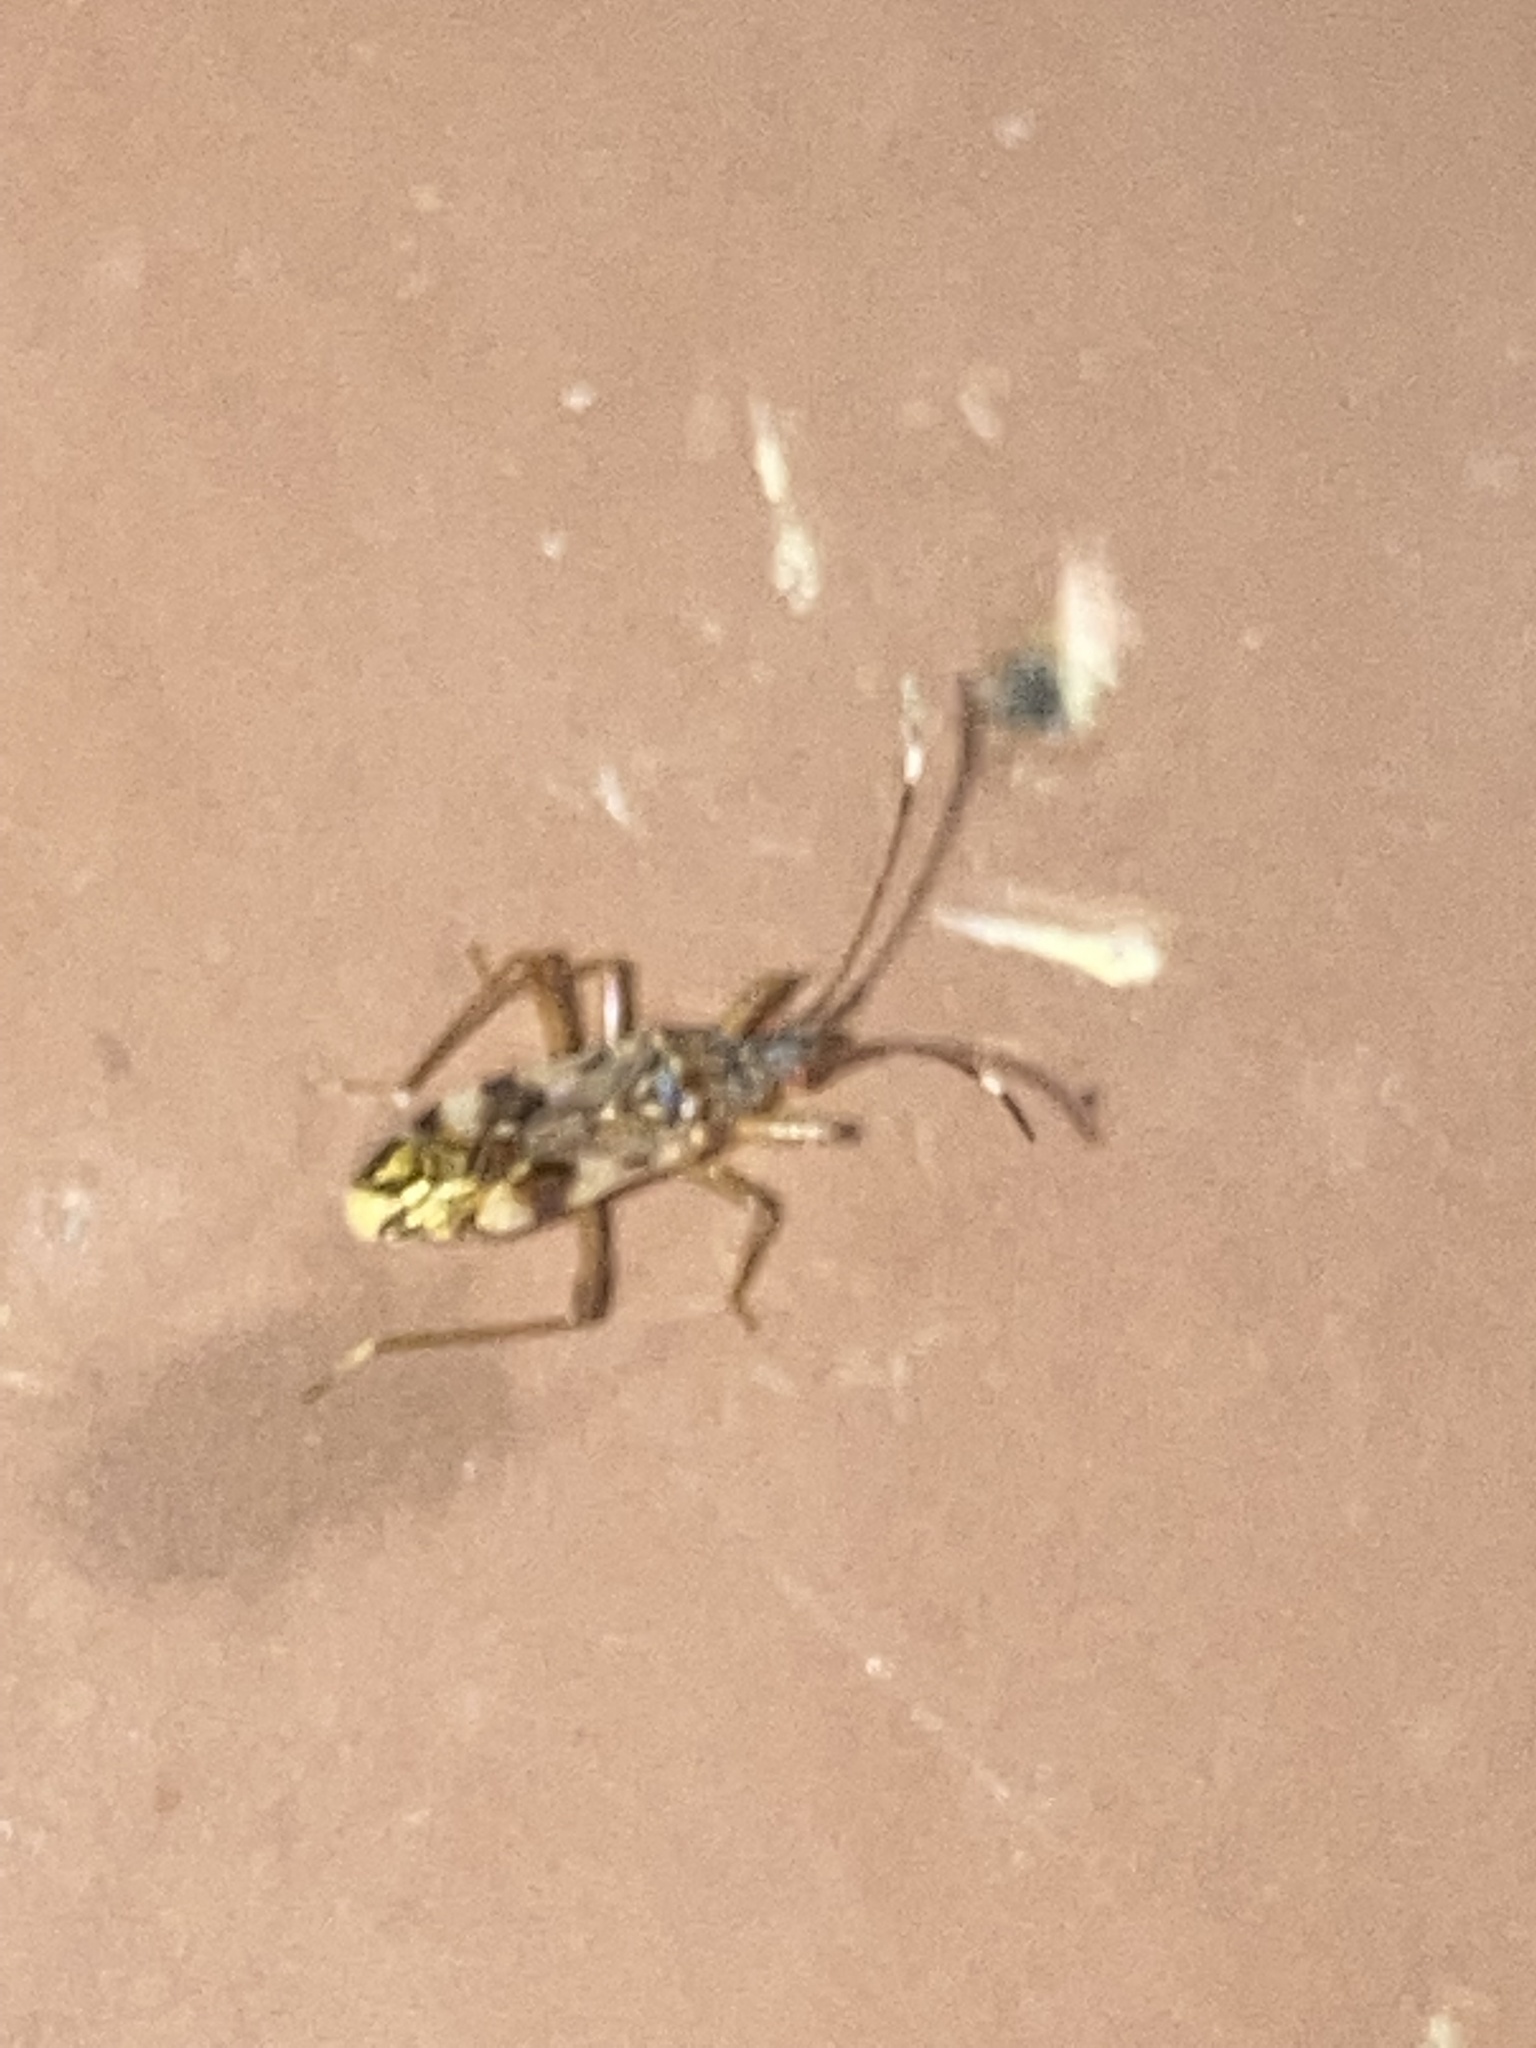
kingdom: Animalia
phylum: Arthropoda
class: Insecta
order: Hemiptera
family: Rhyparochromidae
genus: Ozophora
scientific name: Ozophora picturata
